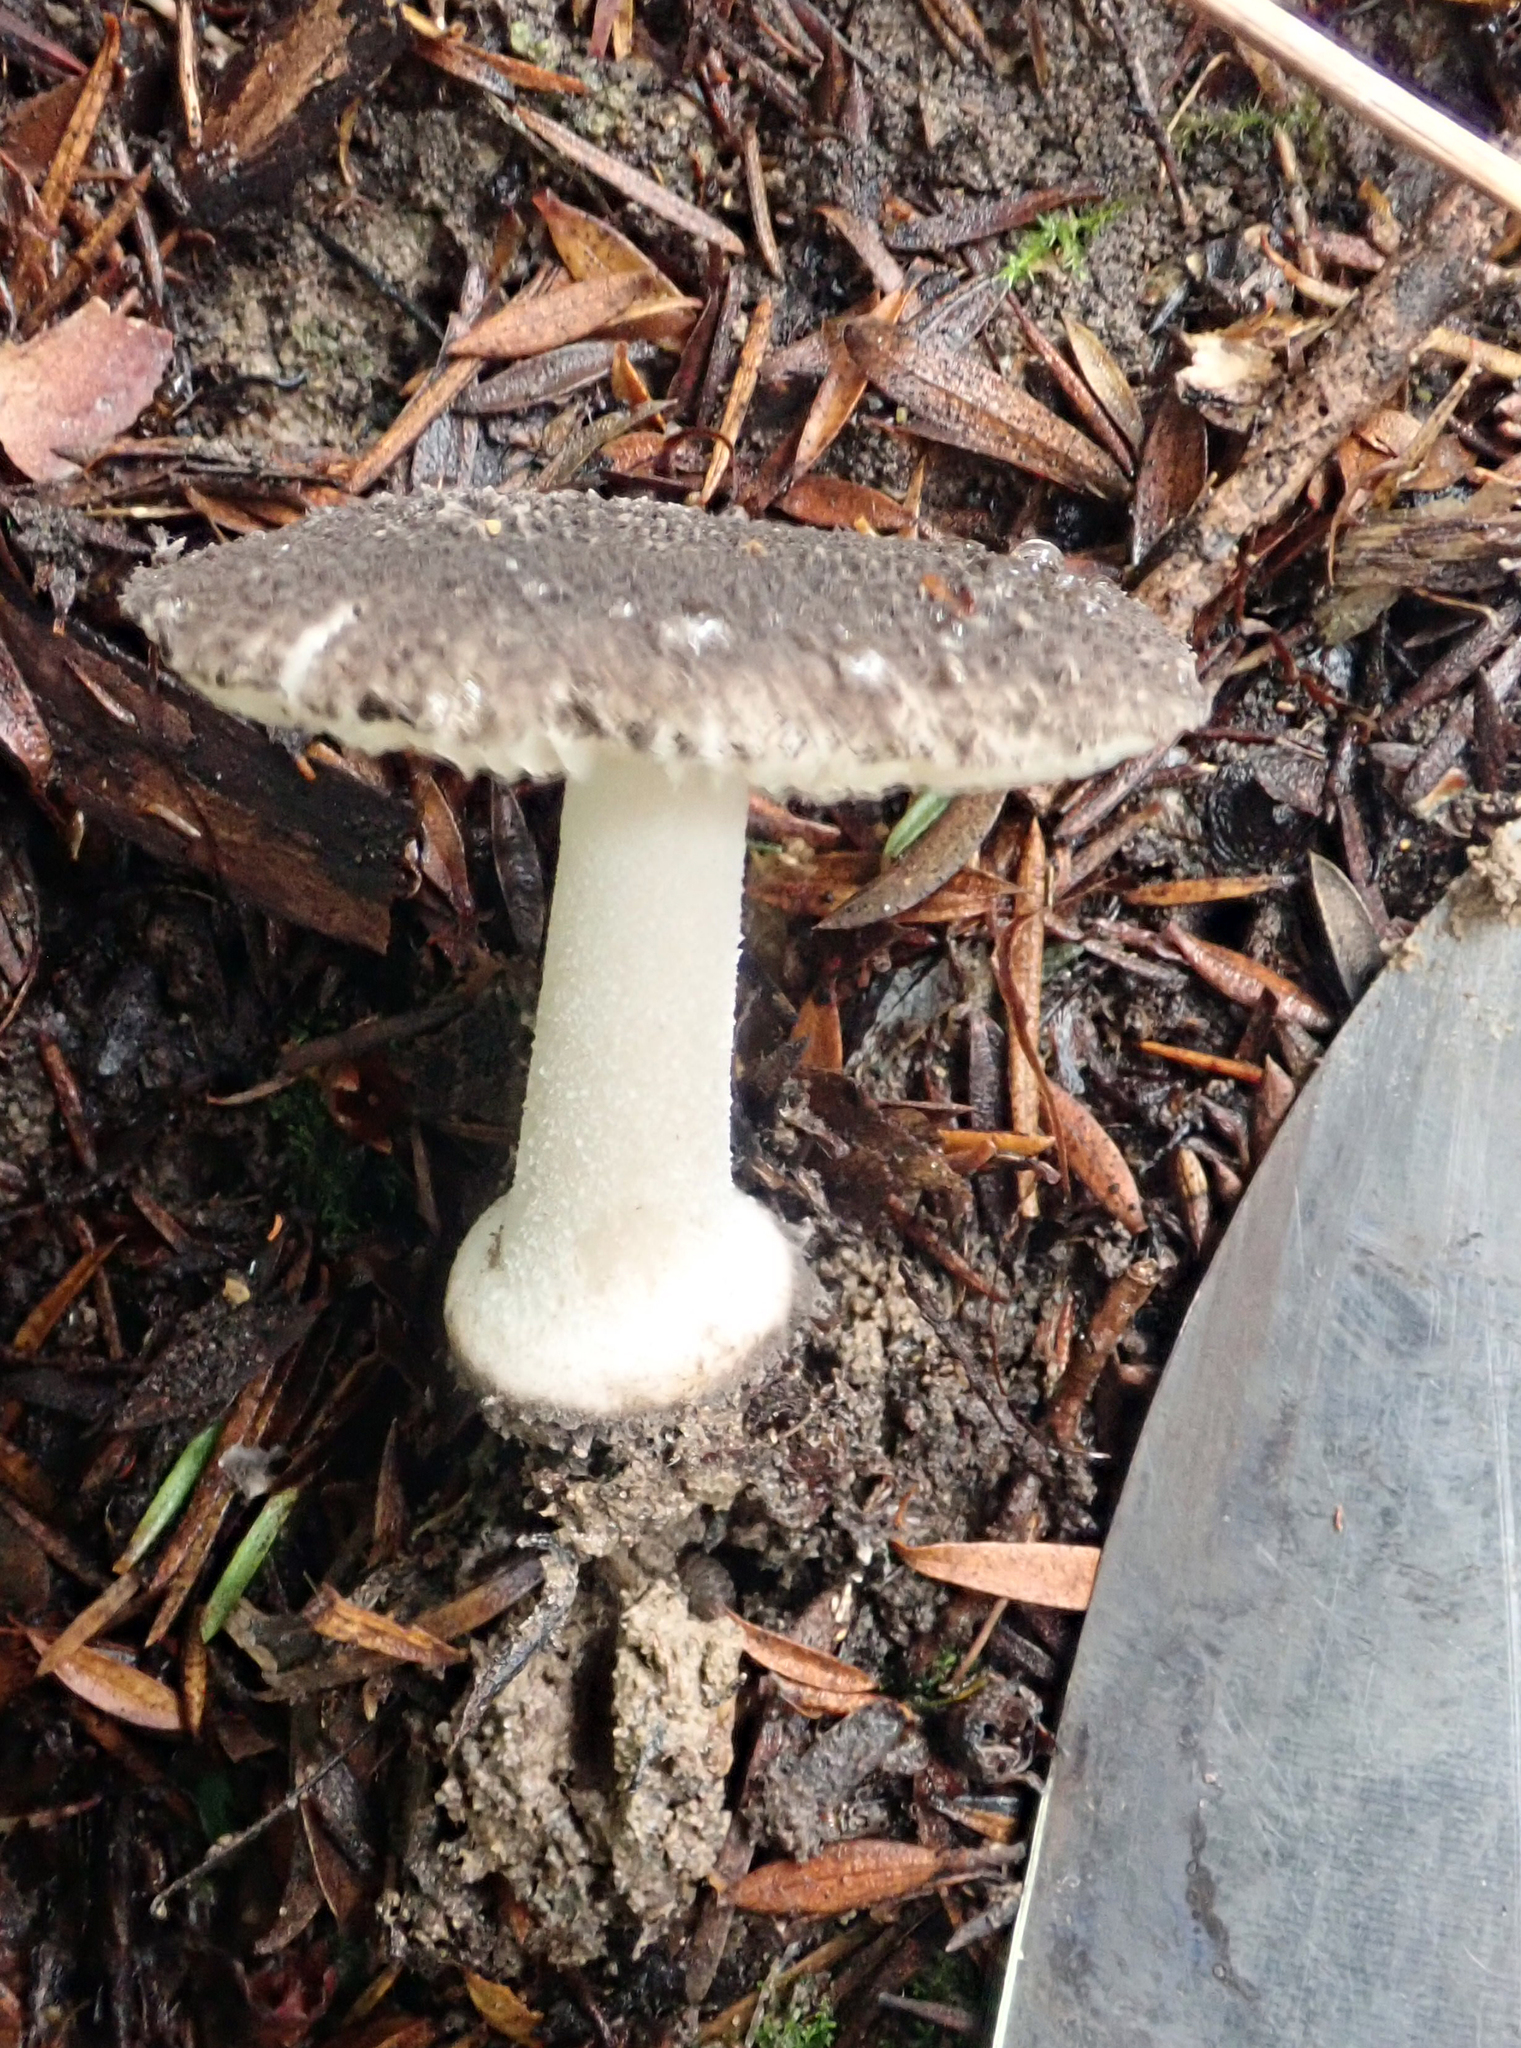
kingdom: Fungi
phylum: Basidiomycota
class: Agaricomycetes
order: Agaricales
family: Amanitaceae
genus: Amanita
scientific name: Amanita nehuta
